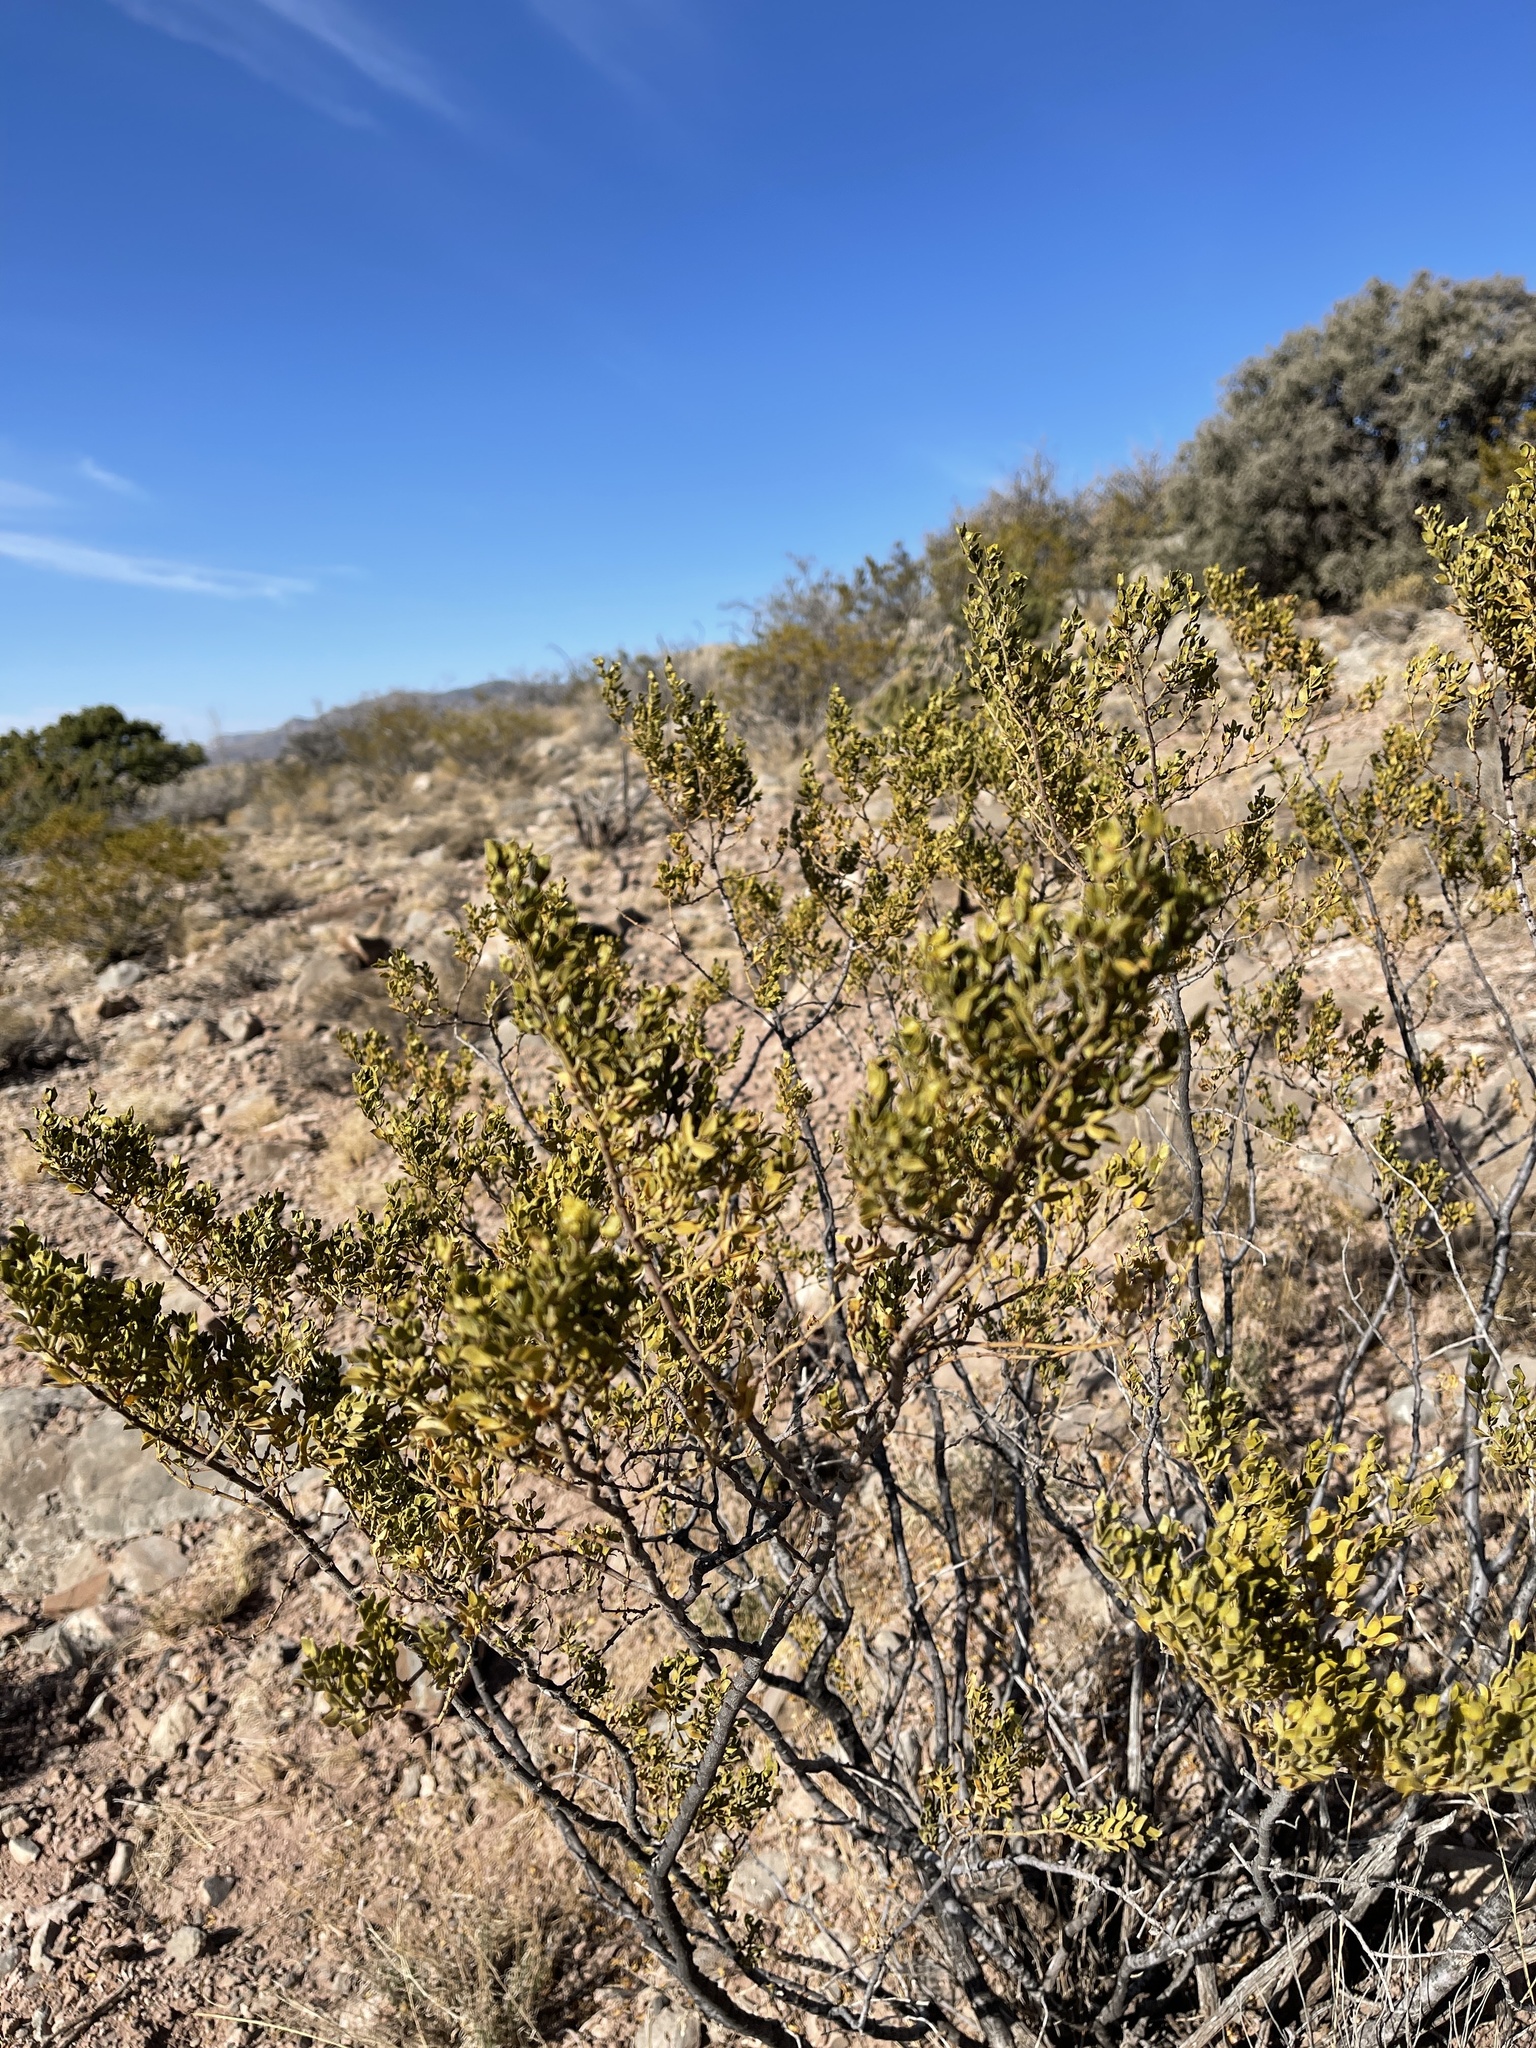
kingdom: Plantae
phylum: Tracheophyta
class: Magnoliopsida
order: Zygophyllales
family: Zygophyllaceae
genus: Larrea
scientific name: Larrea tridentata
